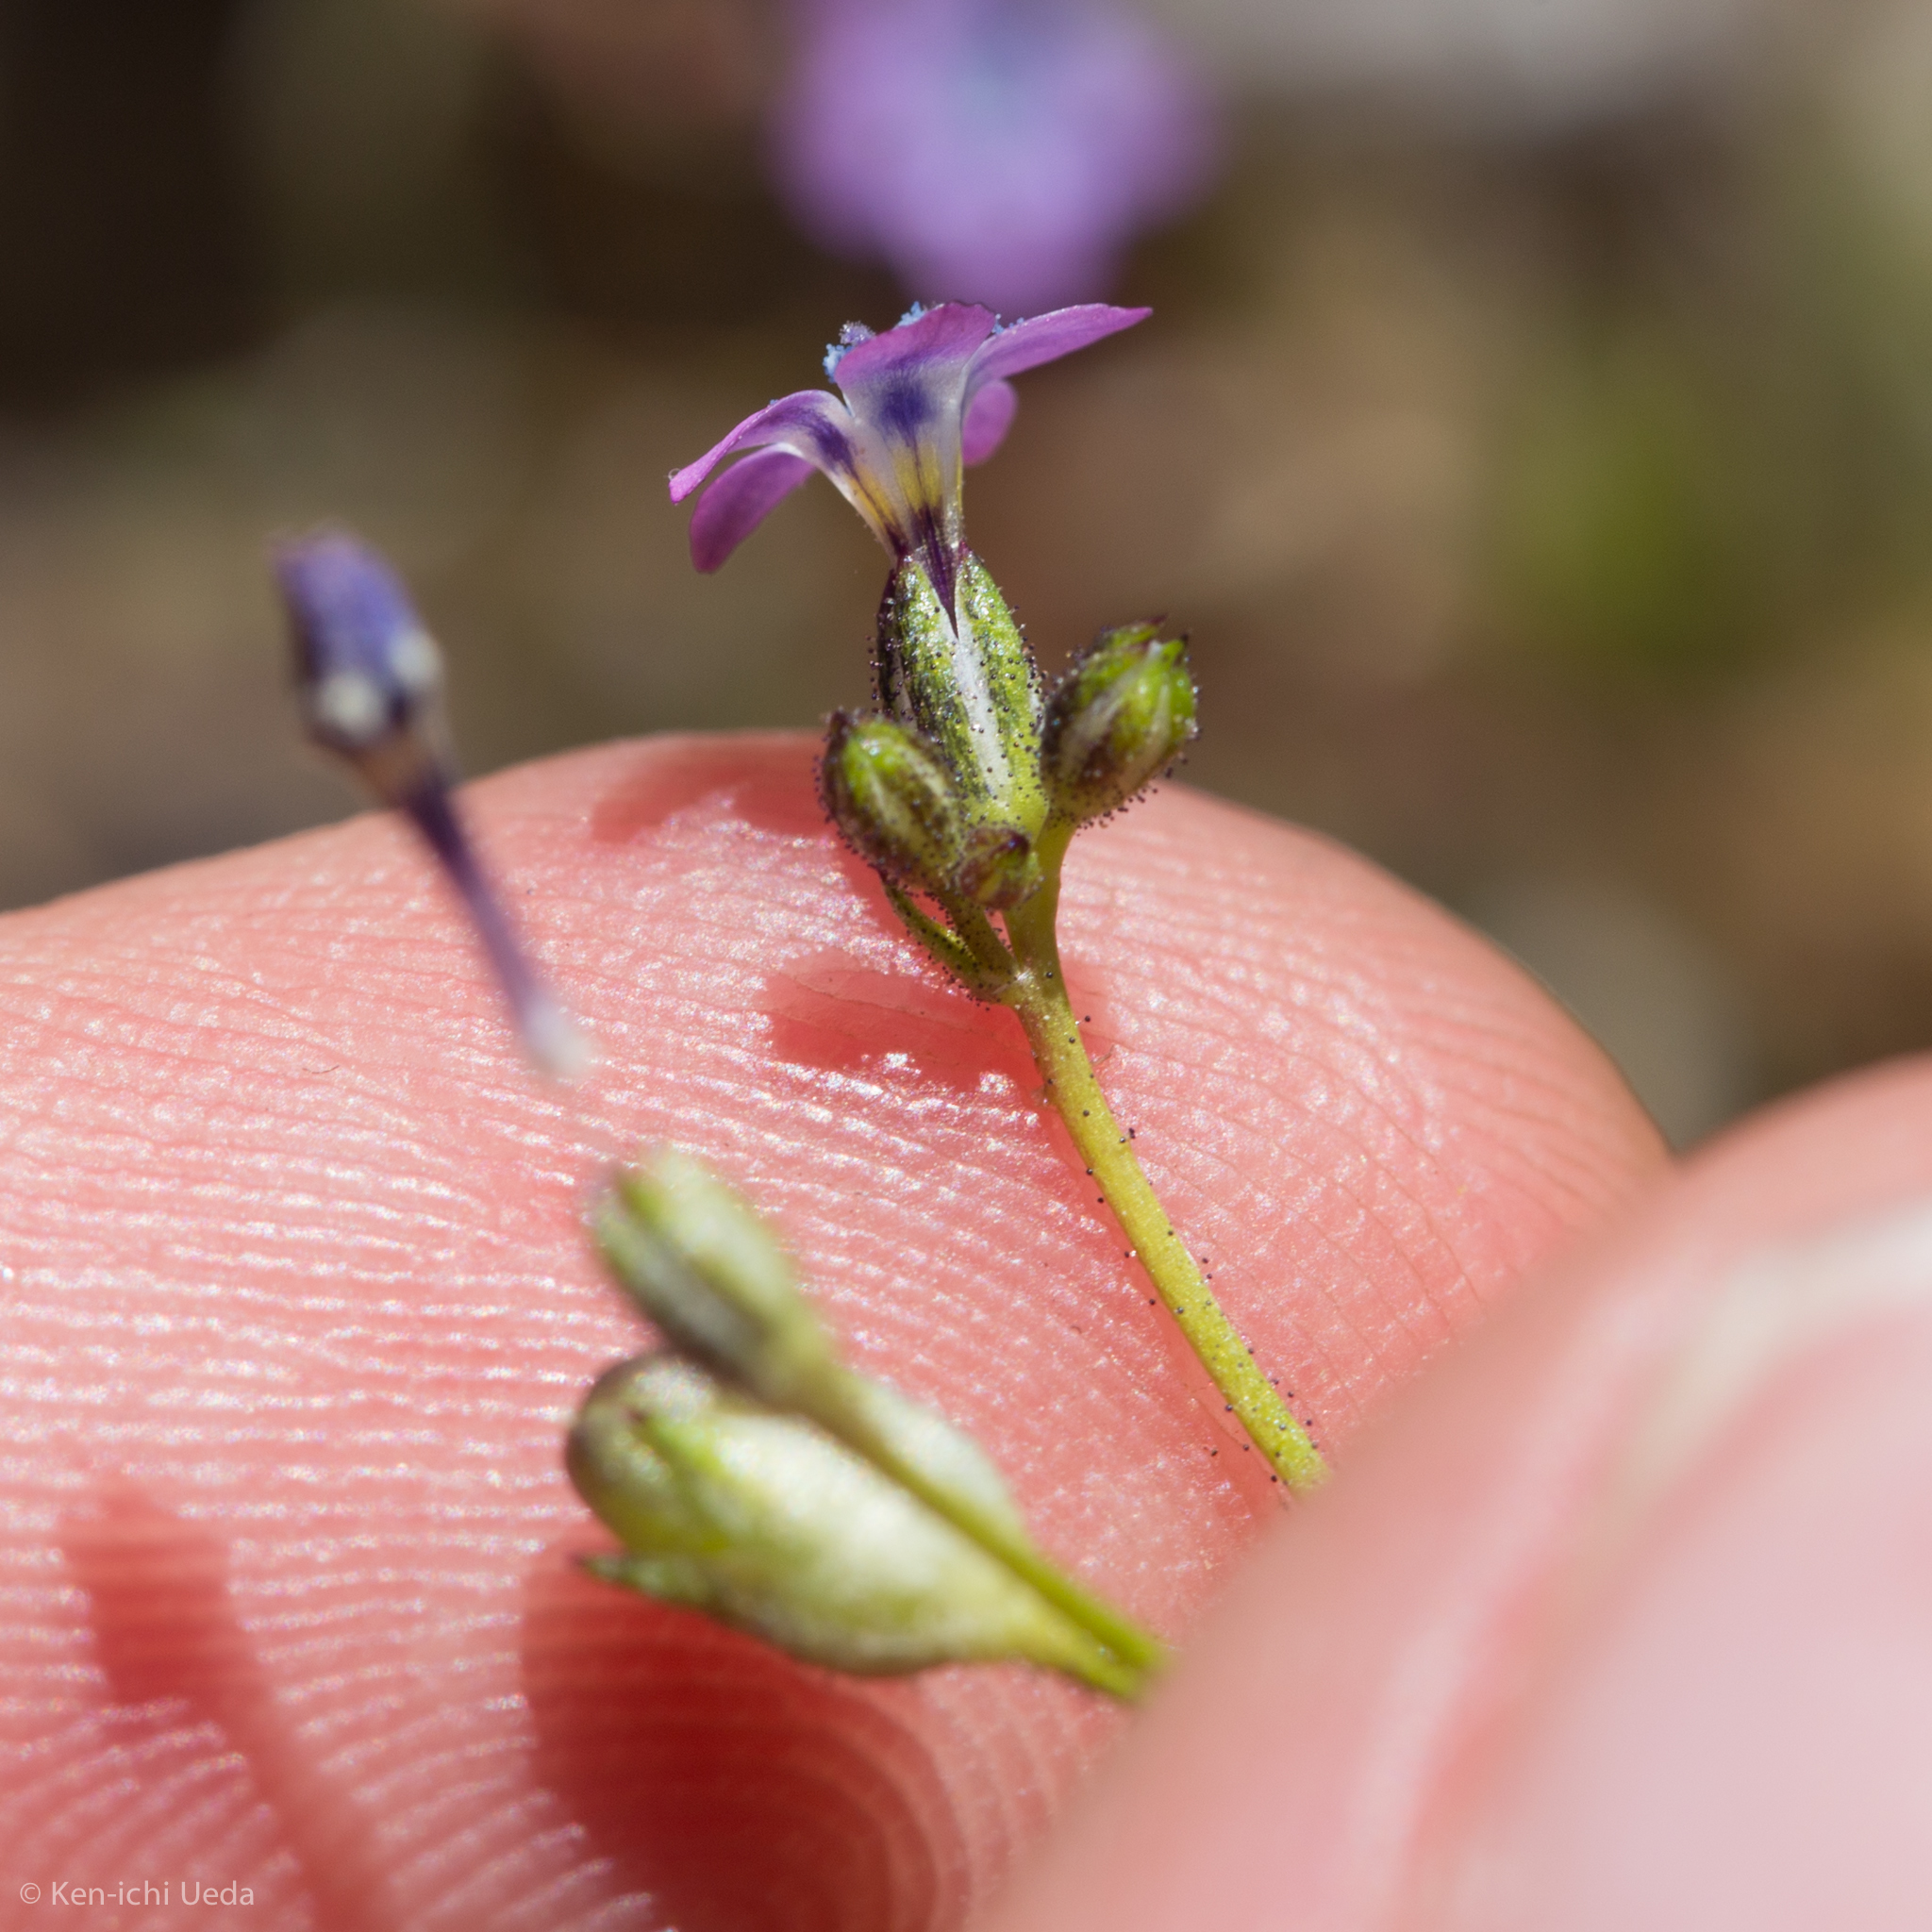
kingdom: Plantae
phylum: Tracheophyta
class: Magnoliopsida
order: Ericales
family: Polemoniaceae
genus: Gilia
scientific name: Gilia brecciarum
